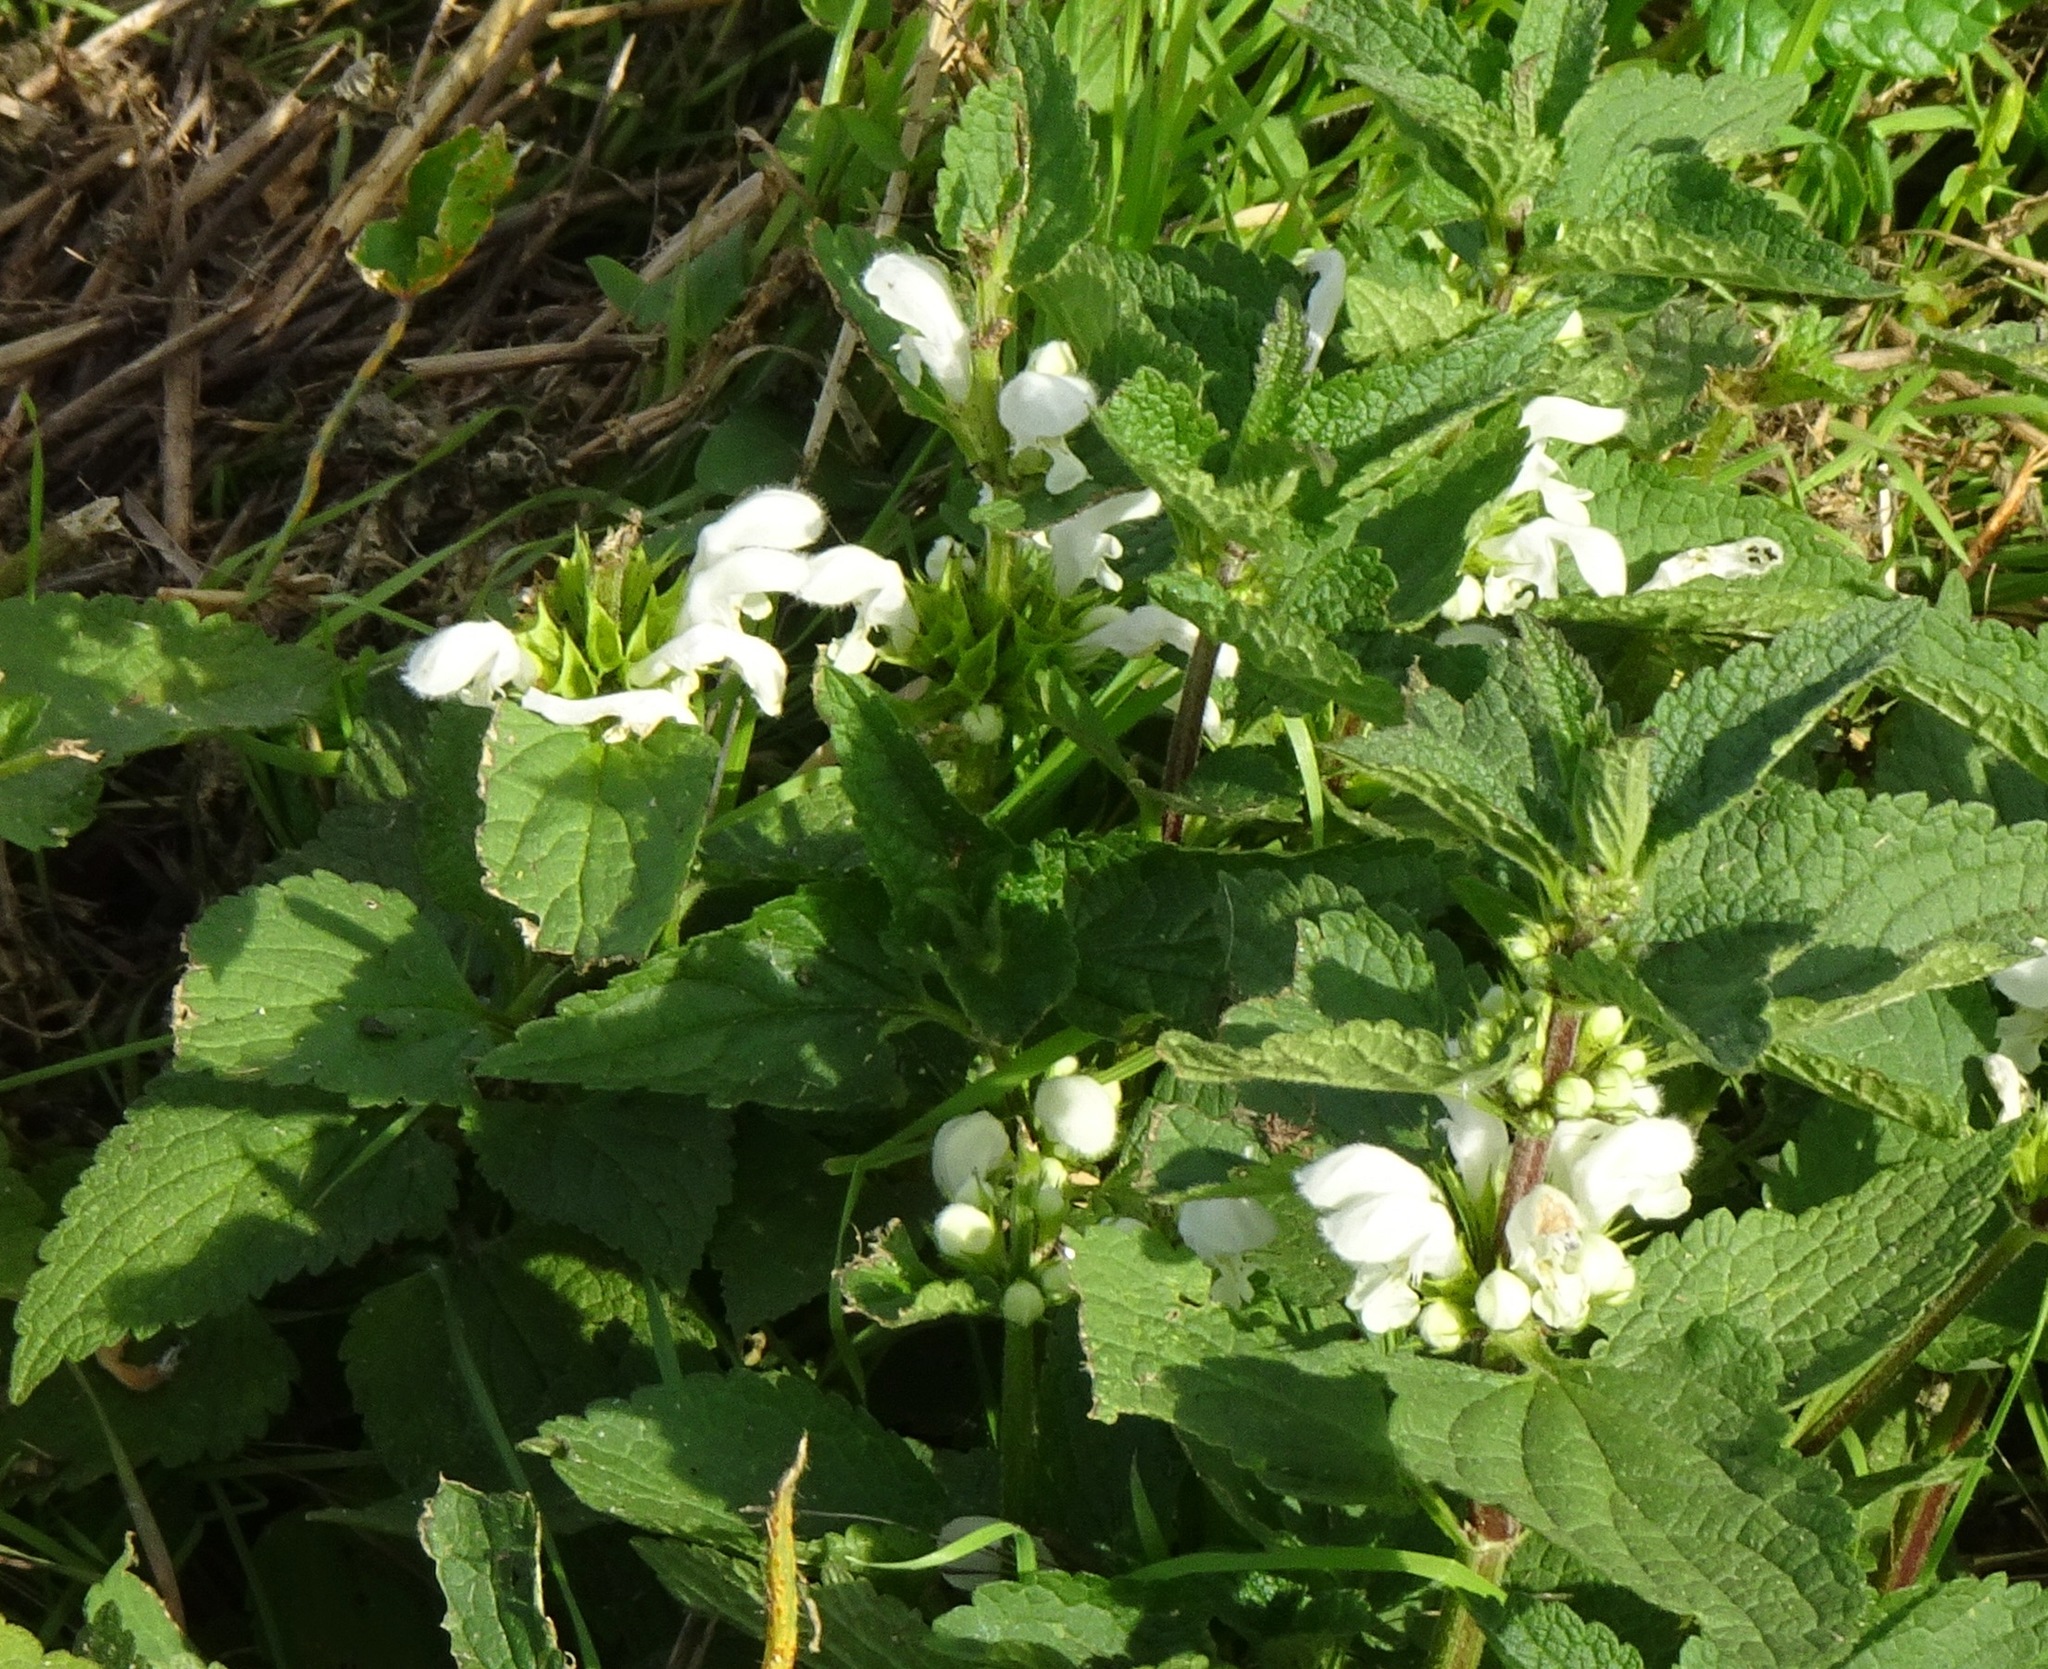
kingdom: Plantae
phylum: Tracheophyta
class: Magnoliopsida
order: Lamiales
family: Lamiaceae
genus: Lamium
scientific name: Lamium album
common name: White dead-nettle
